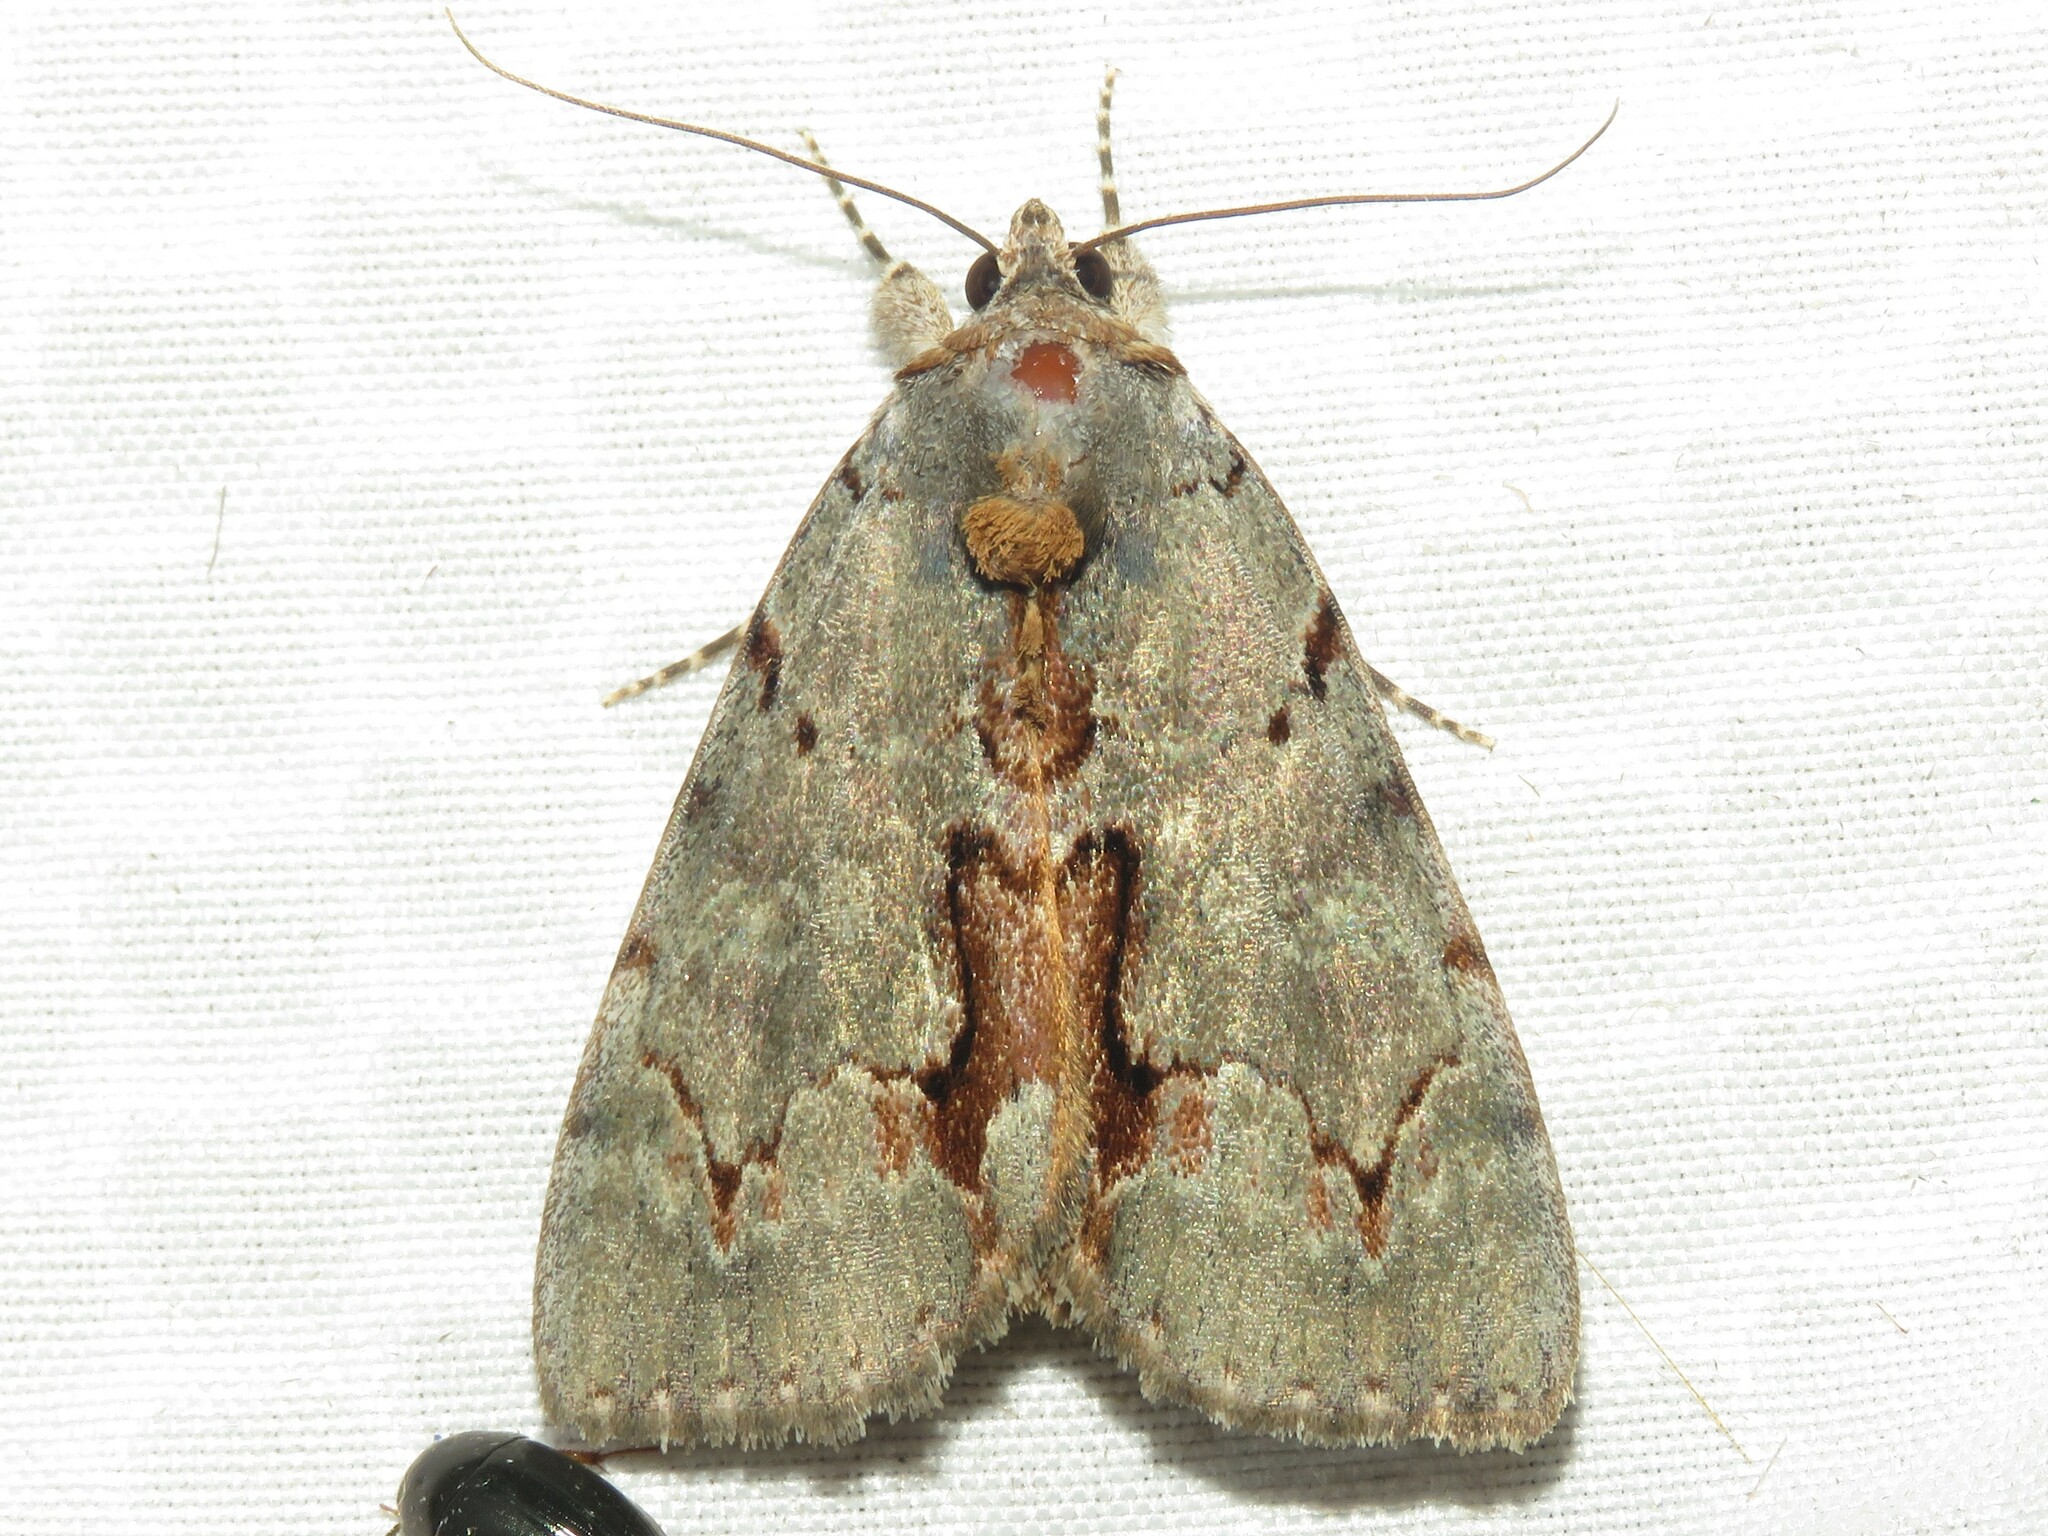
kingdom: Animalia
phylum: Arthropoda
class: Insecta
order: Lepidoptera
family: Erebidae
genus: Catocala
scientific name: Catocala grynea
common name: Woody underwing
